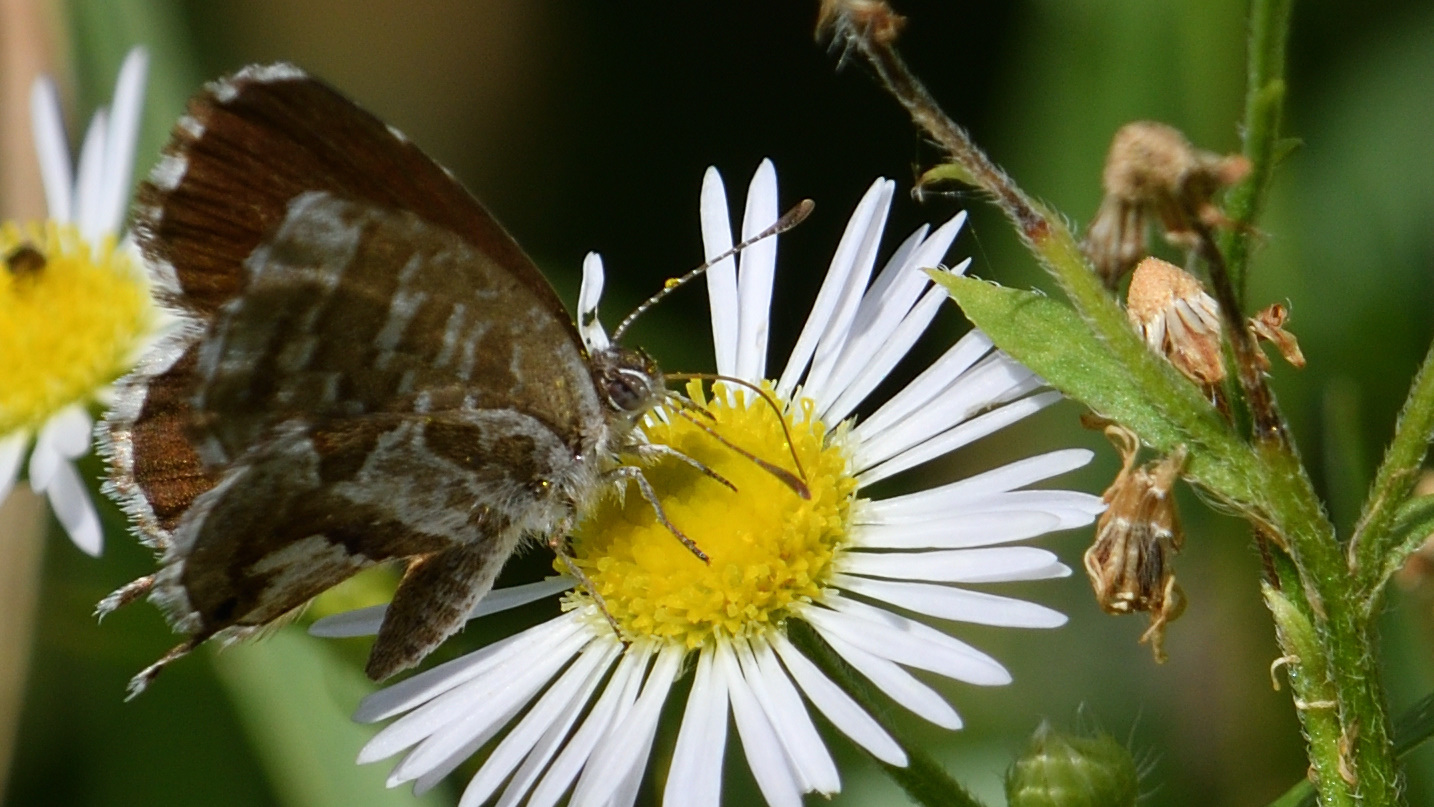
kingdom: Animalia
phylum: Arthropoda
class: Insecta
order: Lepidoptera
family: Lycaenidae
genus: Cacyreus
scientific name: Cacyreus marshalli
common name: Geranium bronze
